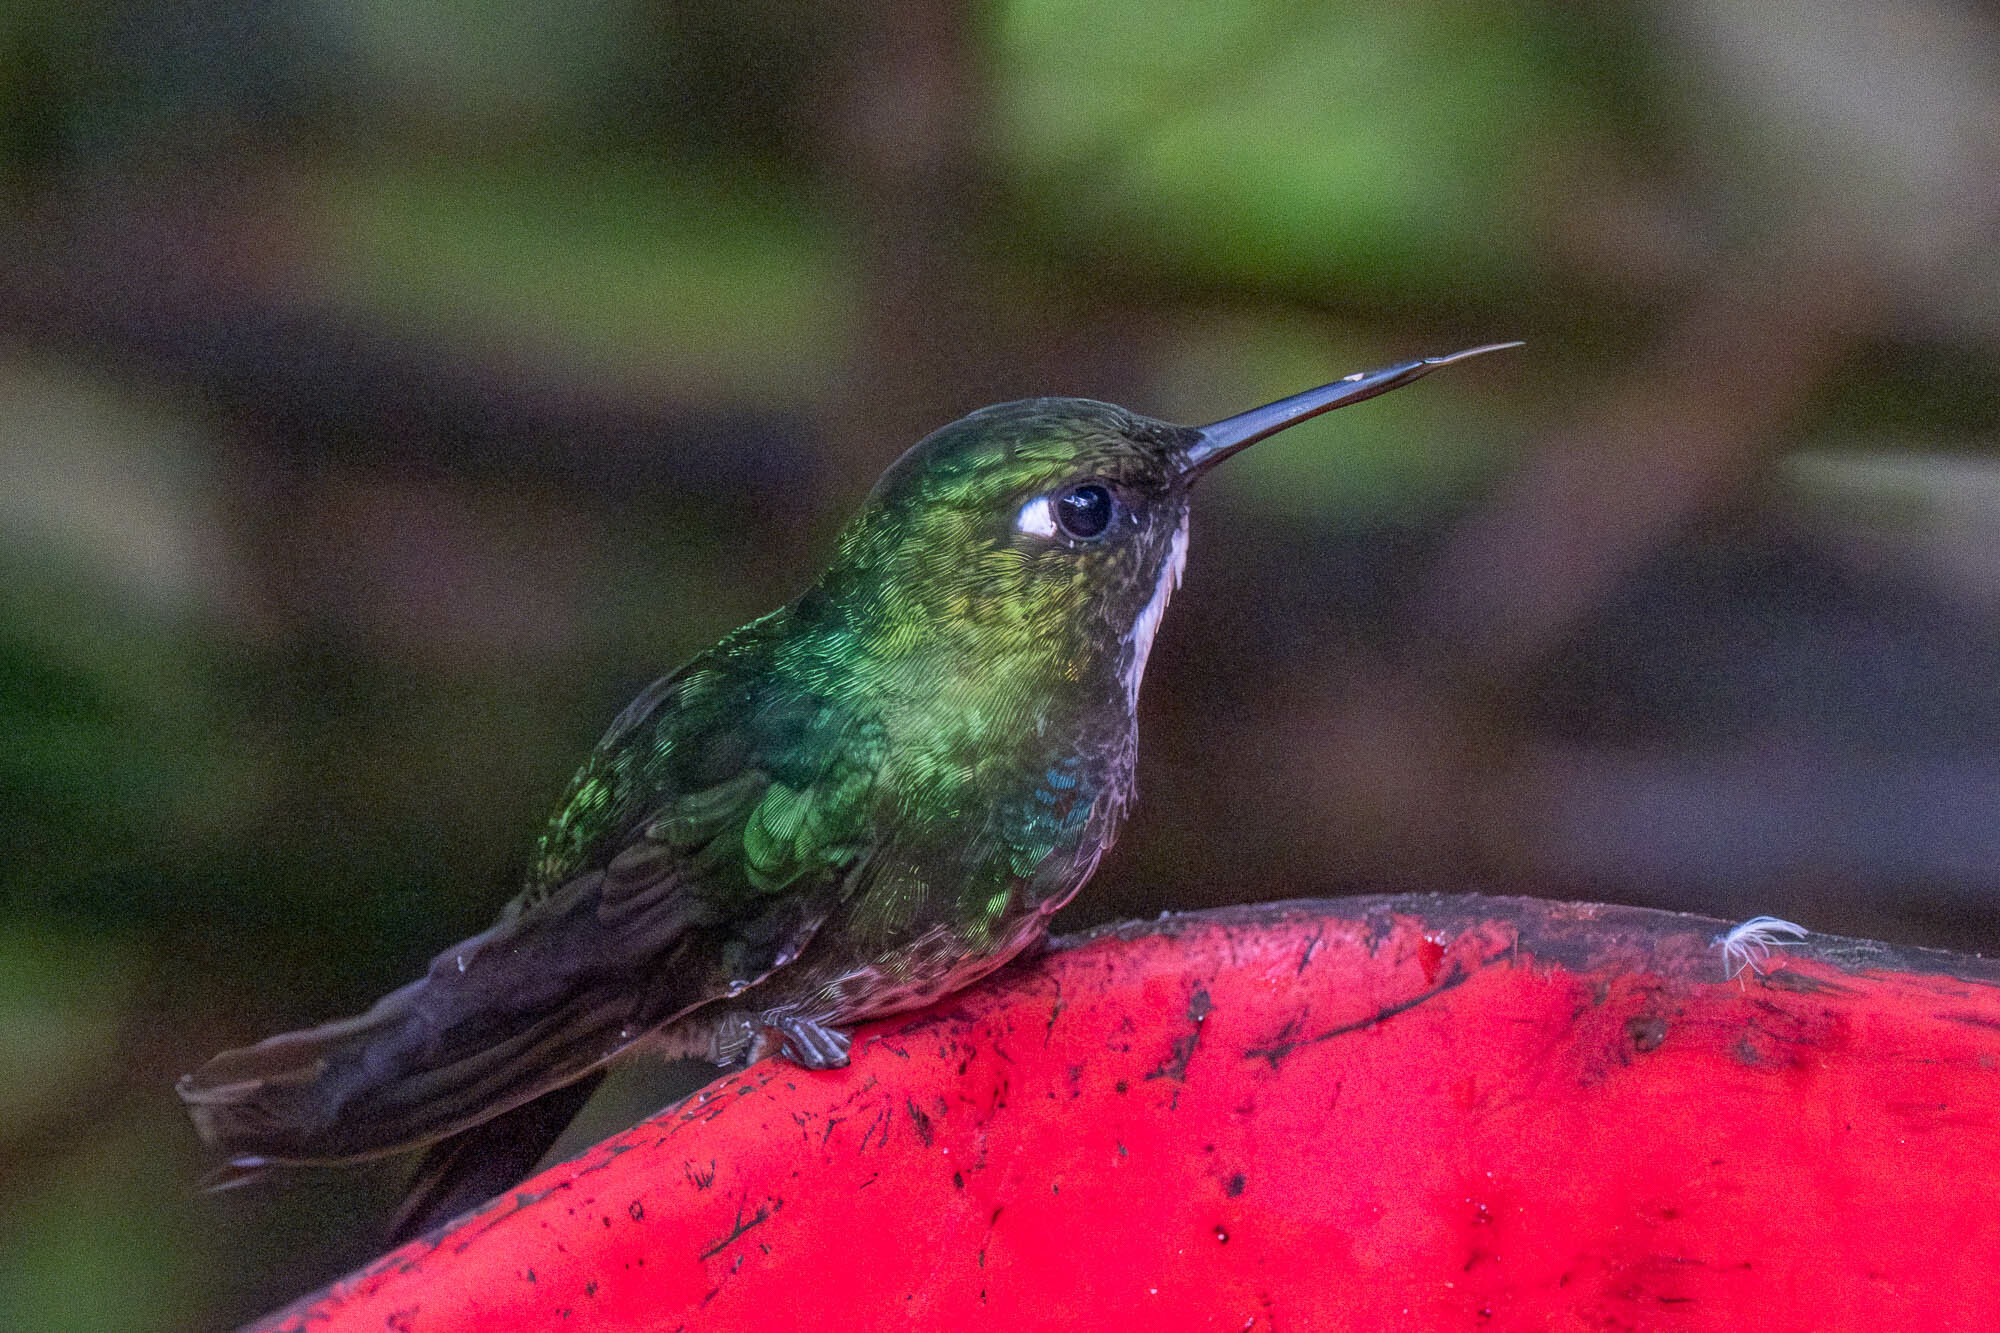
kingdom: Animalia
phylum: Chordata
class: Aves
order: Apodiformes
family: Trochilidae
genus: Heliangelus
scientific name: Heliangelus exortis
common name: Tourmaline sunangel
